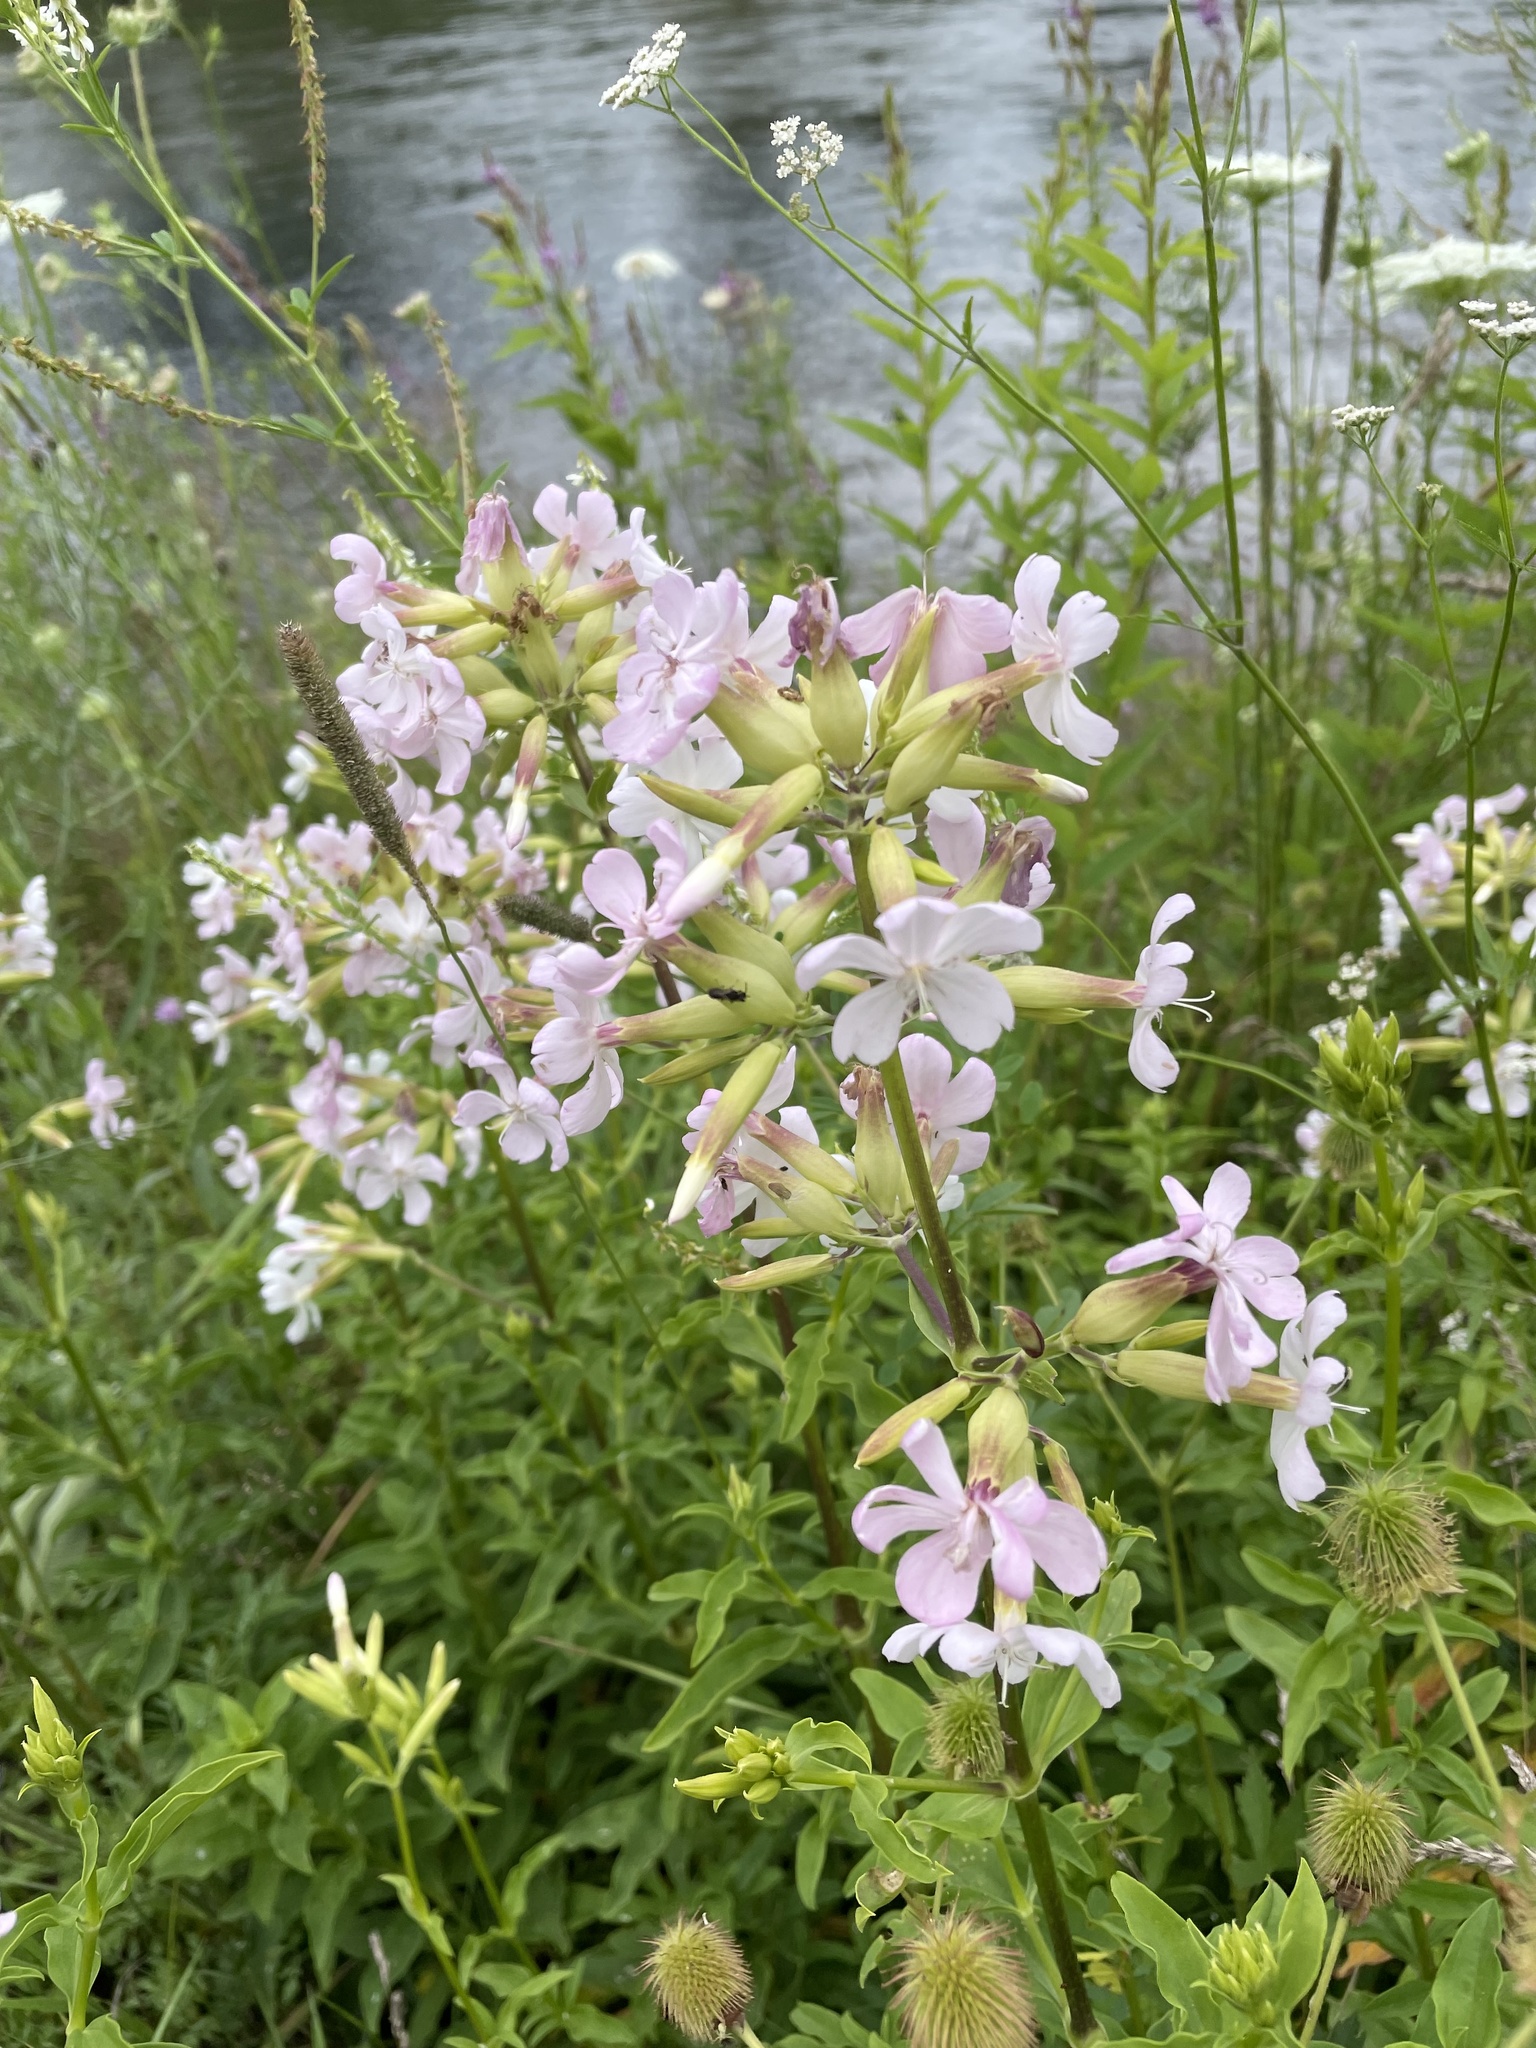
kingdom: Plantae
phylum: Tracheophyta
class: Magnoliopsida
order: Caryophyllales
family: Caryophyllaceae
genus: Saponaria
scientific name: Saponaria officinalis
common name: Soapwort
